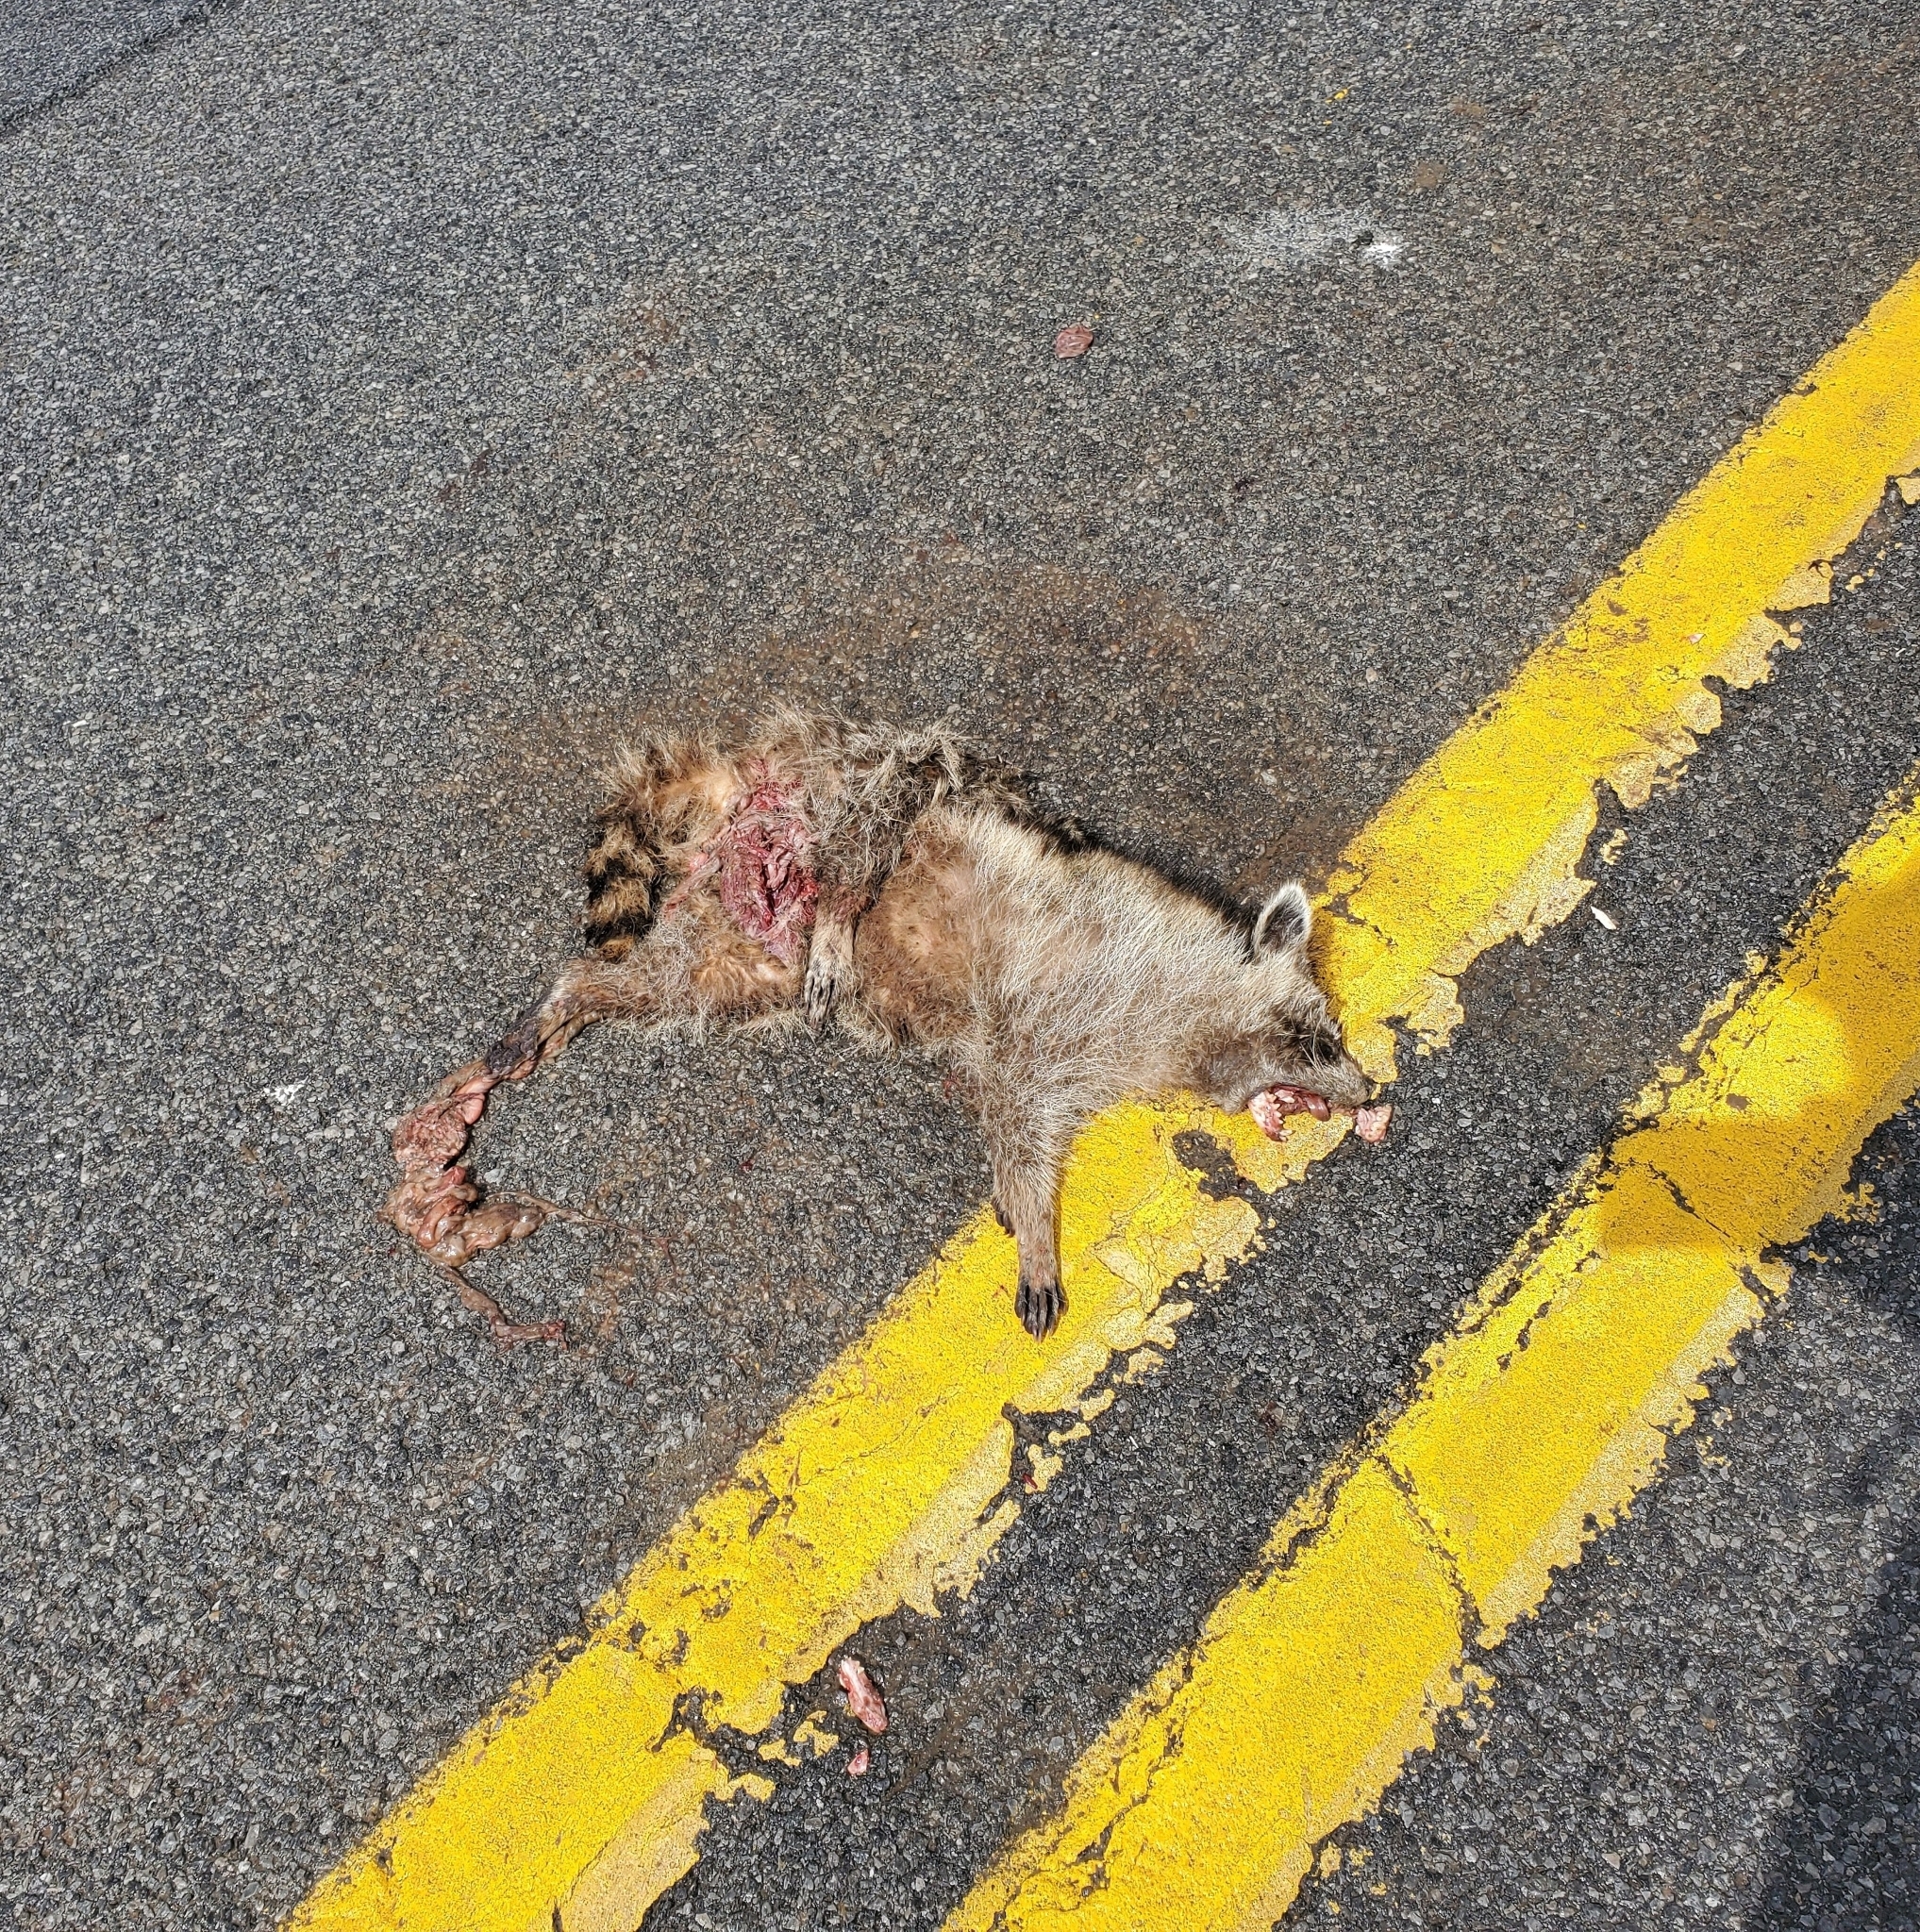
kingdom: Animalia
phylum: Chordata
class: Mammalia
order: Carnivora
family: Procyonidae
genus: Procyon
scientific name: Procyon lotor
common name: Raccoon
